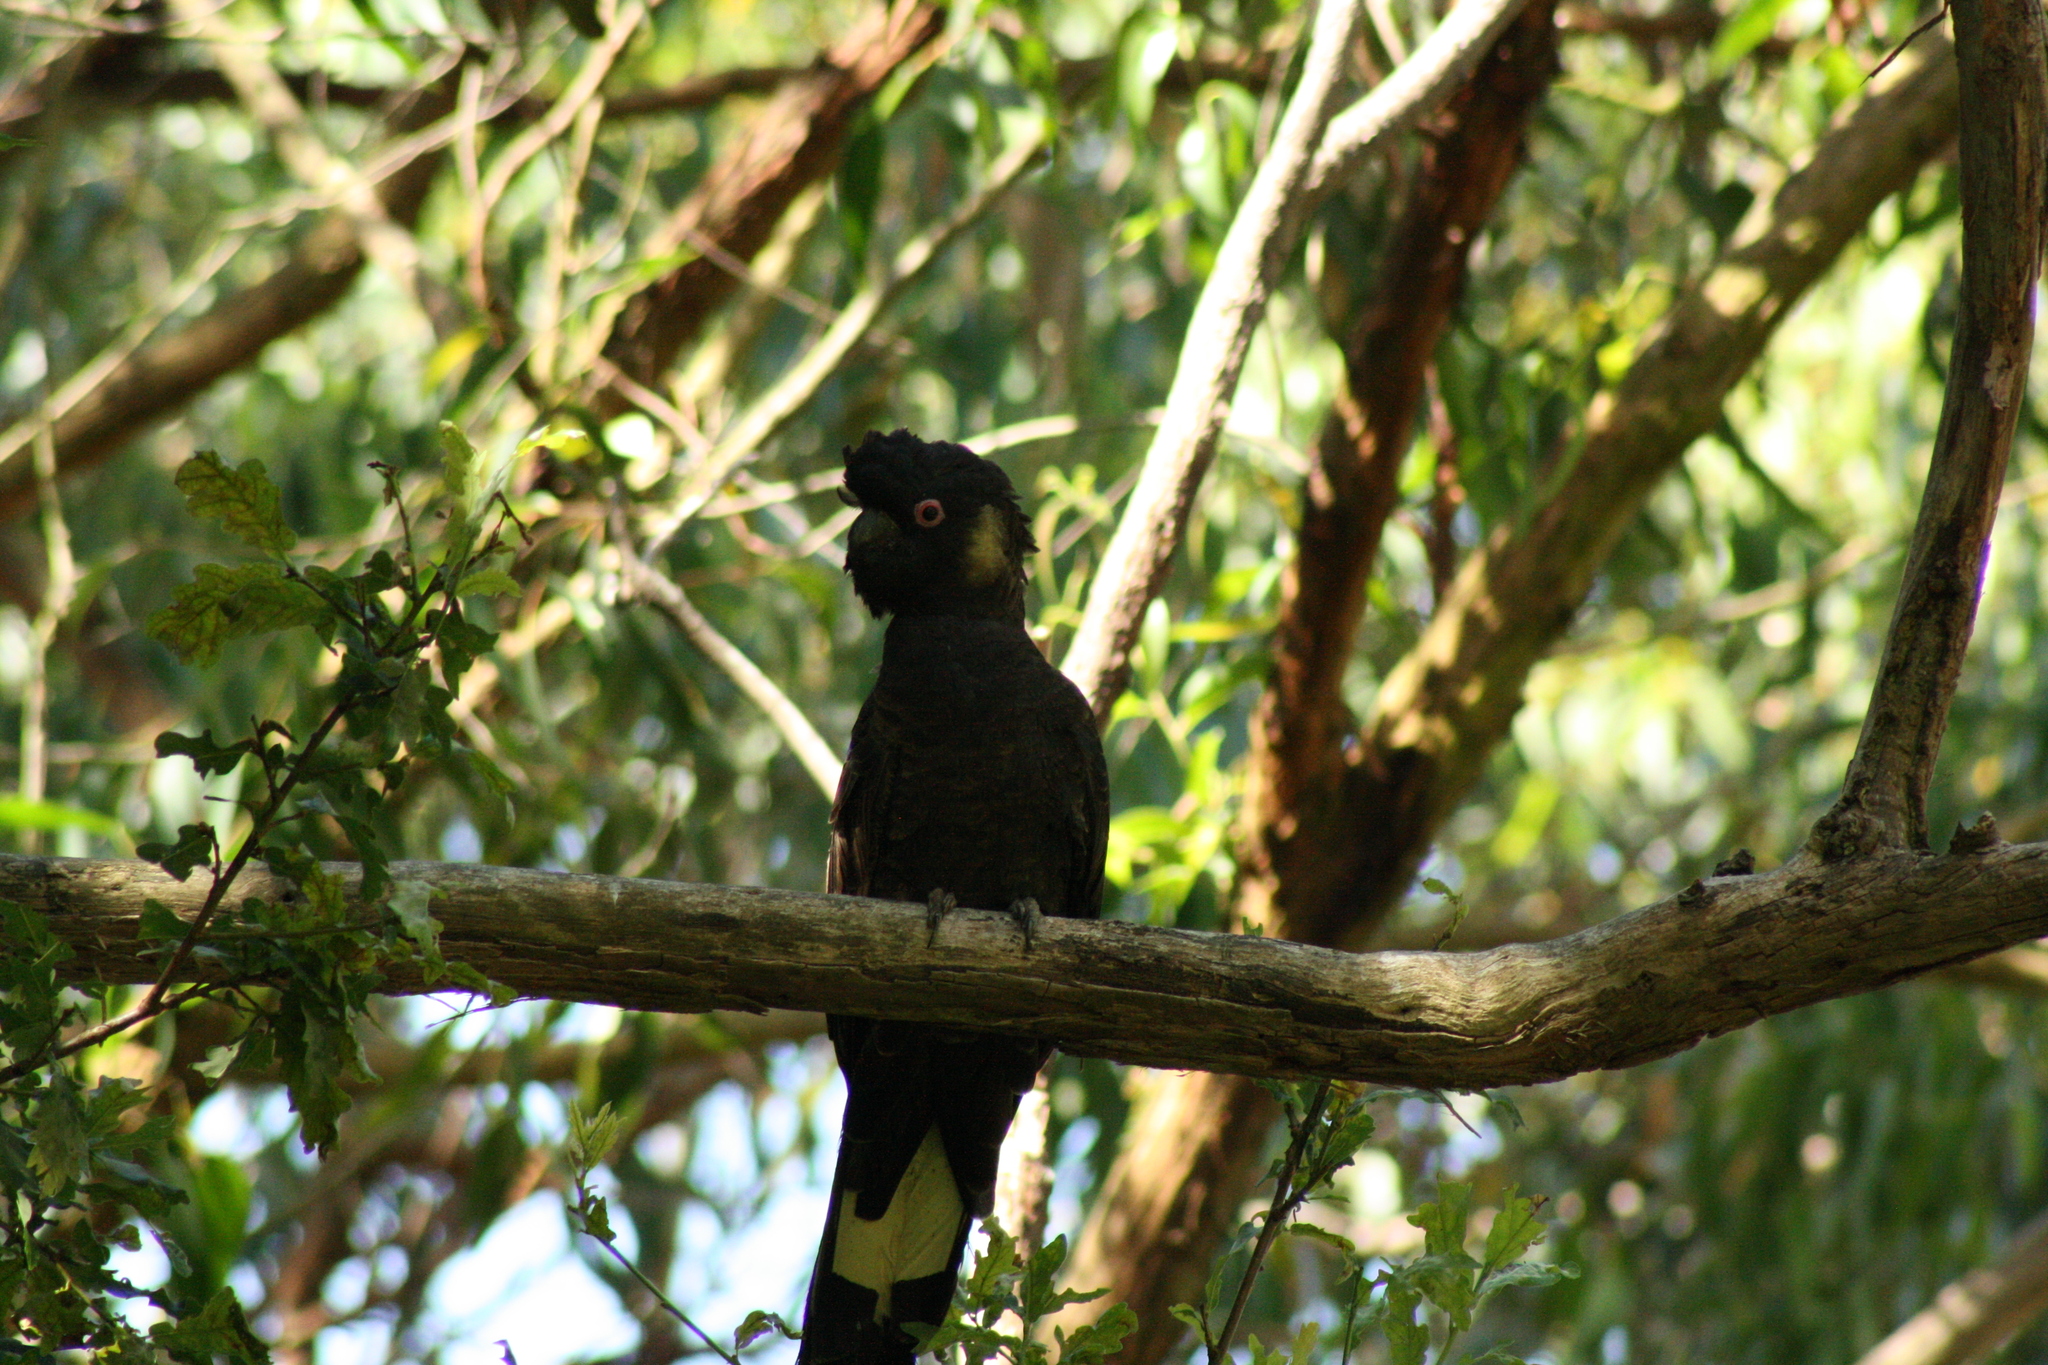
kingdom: Animalia
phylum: Chordata
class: Aves
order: Psittaciformes
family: Cacatuidae
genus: Zanda
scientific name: Zanda funerea
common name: Yellow-tailed black-cockatoo
